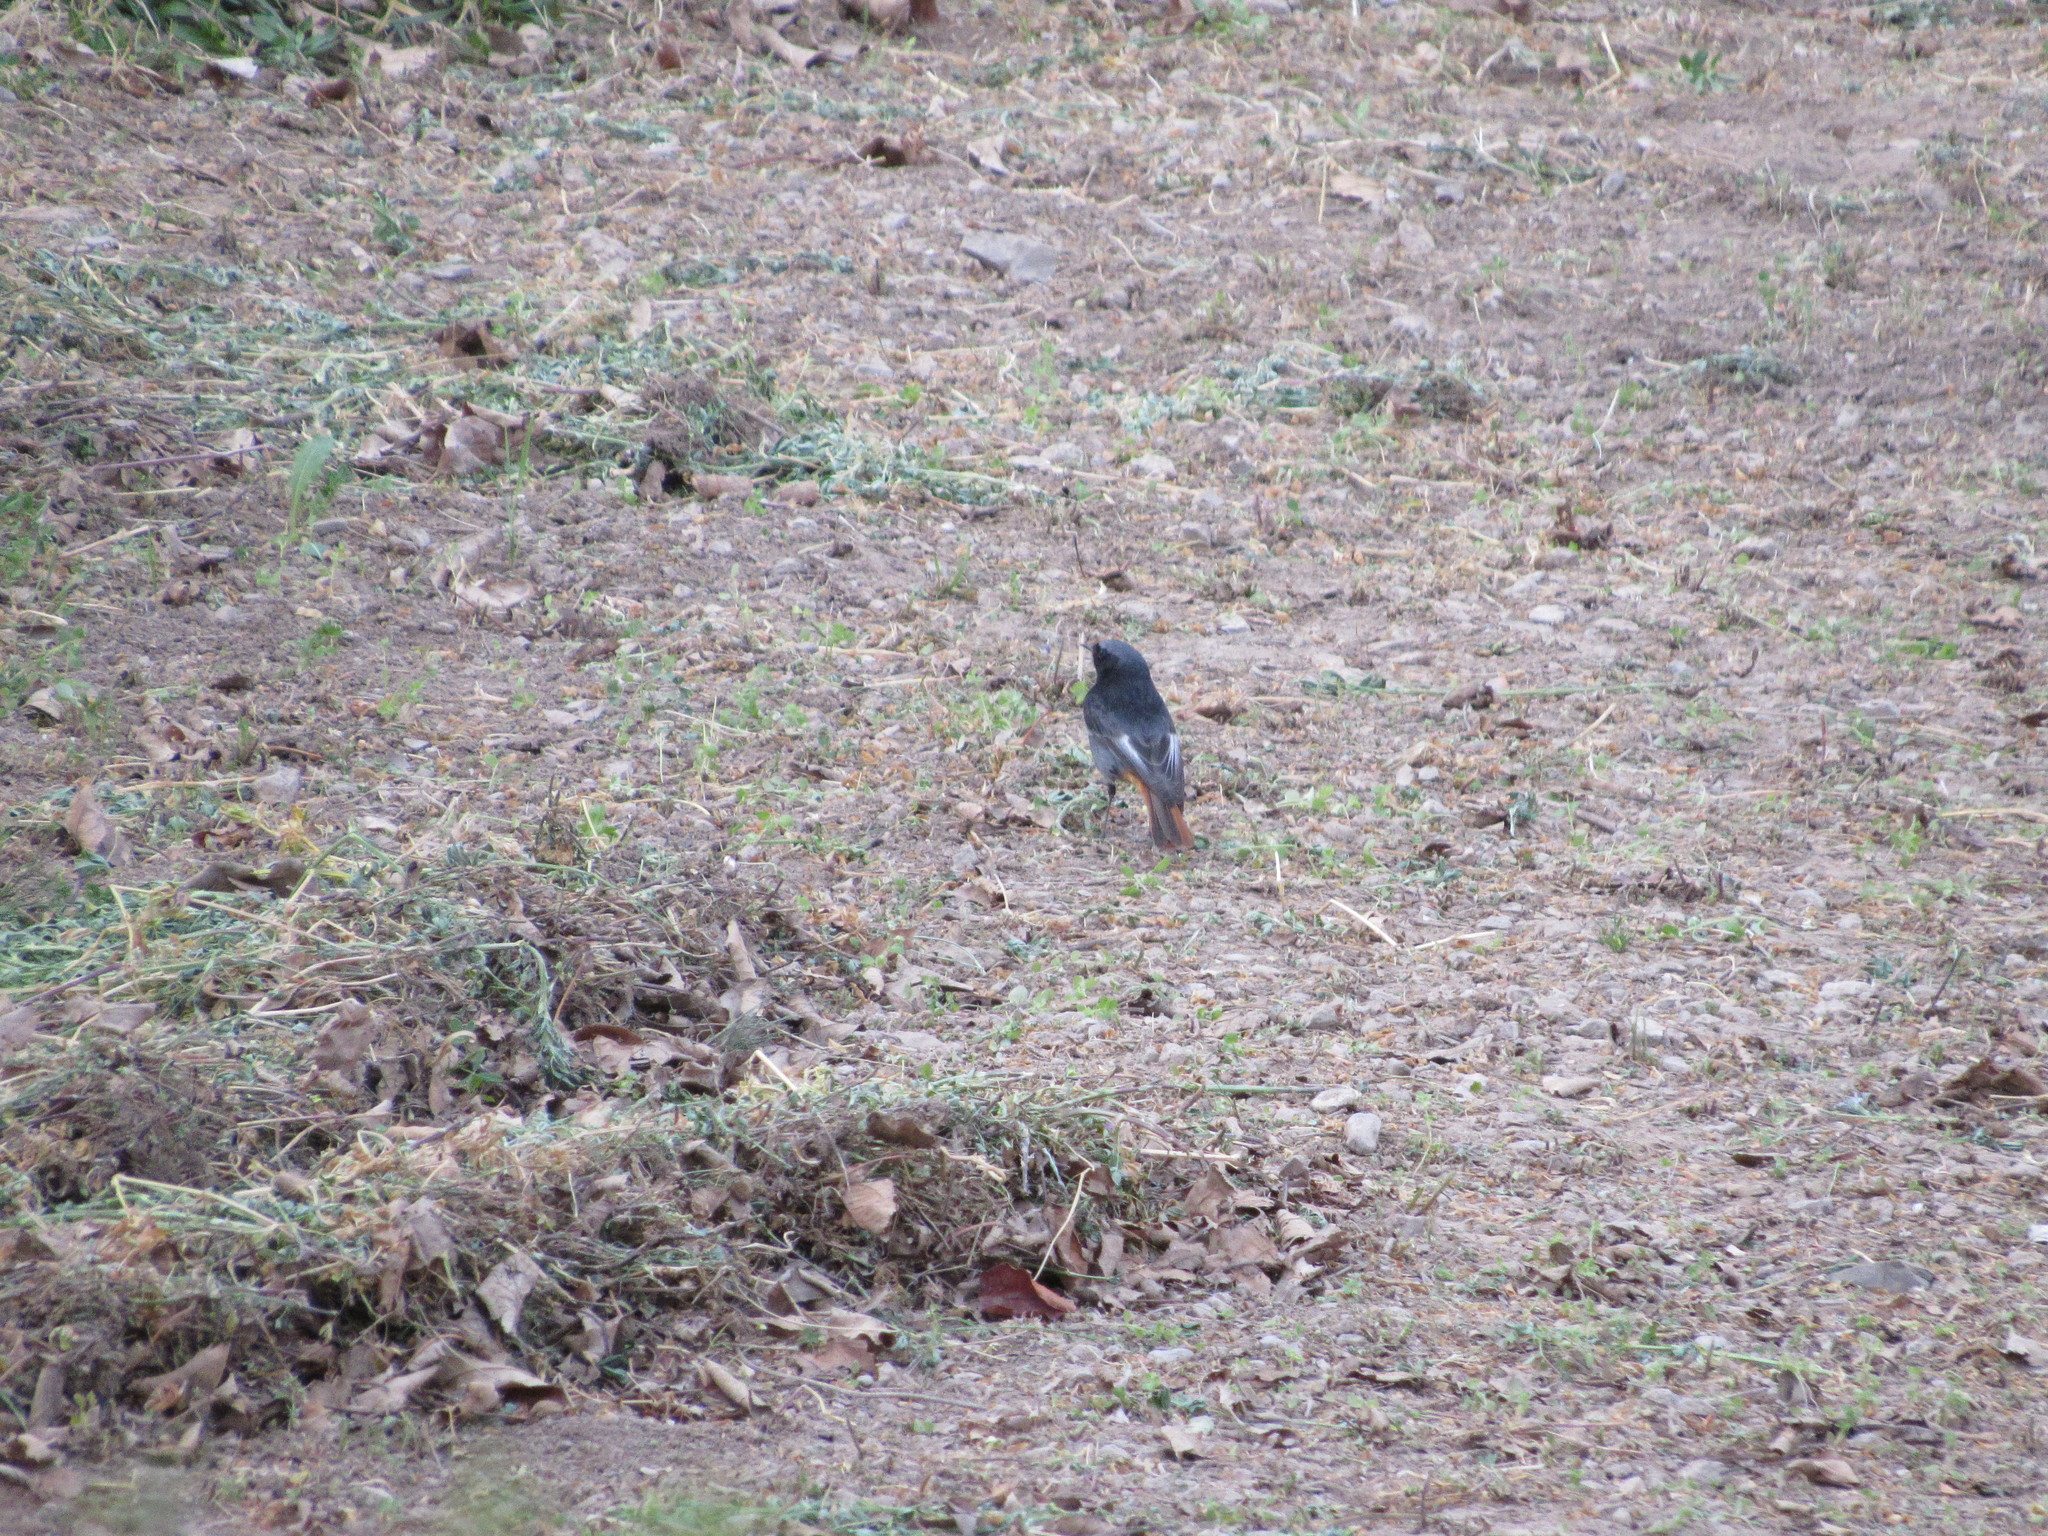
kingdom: Animalia
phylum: Chordata
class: Aves
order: Passeriformes
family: Muscicapidae
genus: Phoenicurus
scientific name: Phoenicurus ochruros
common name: Black redstart
